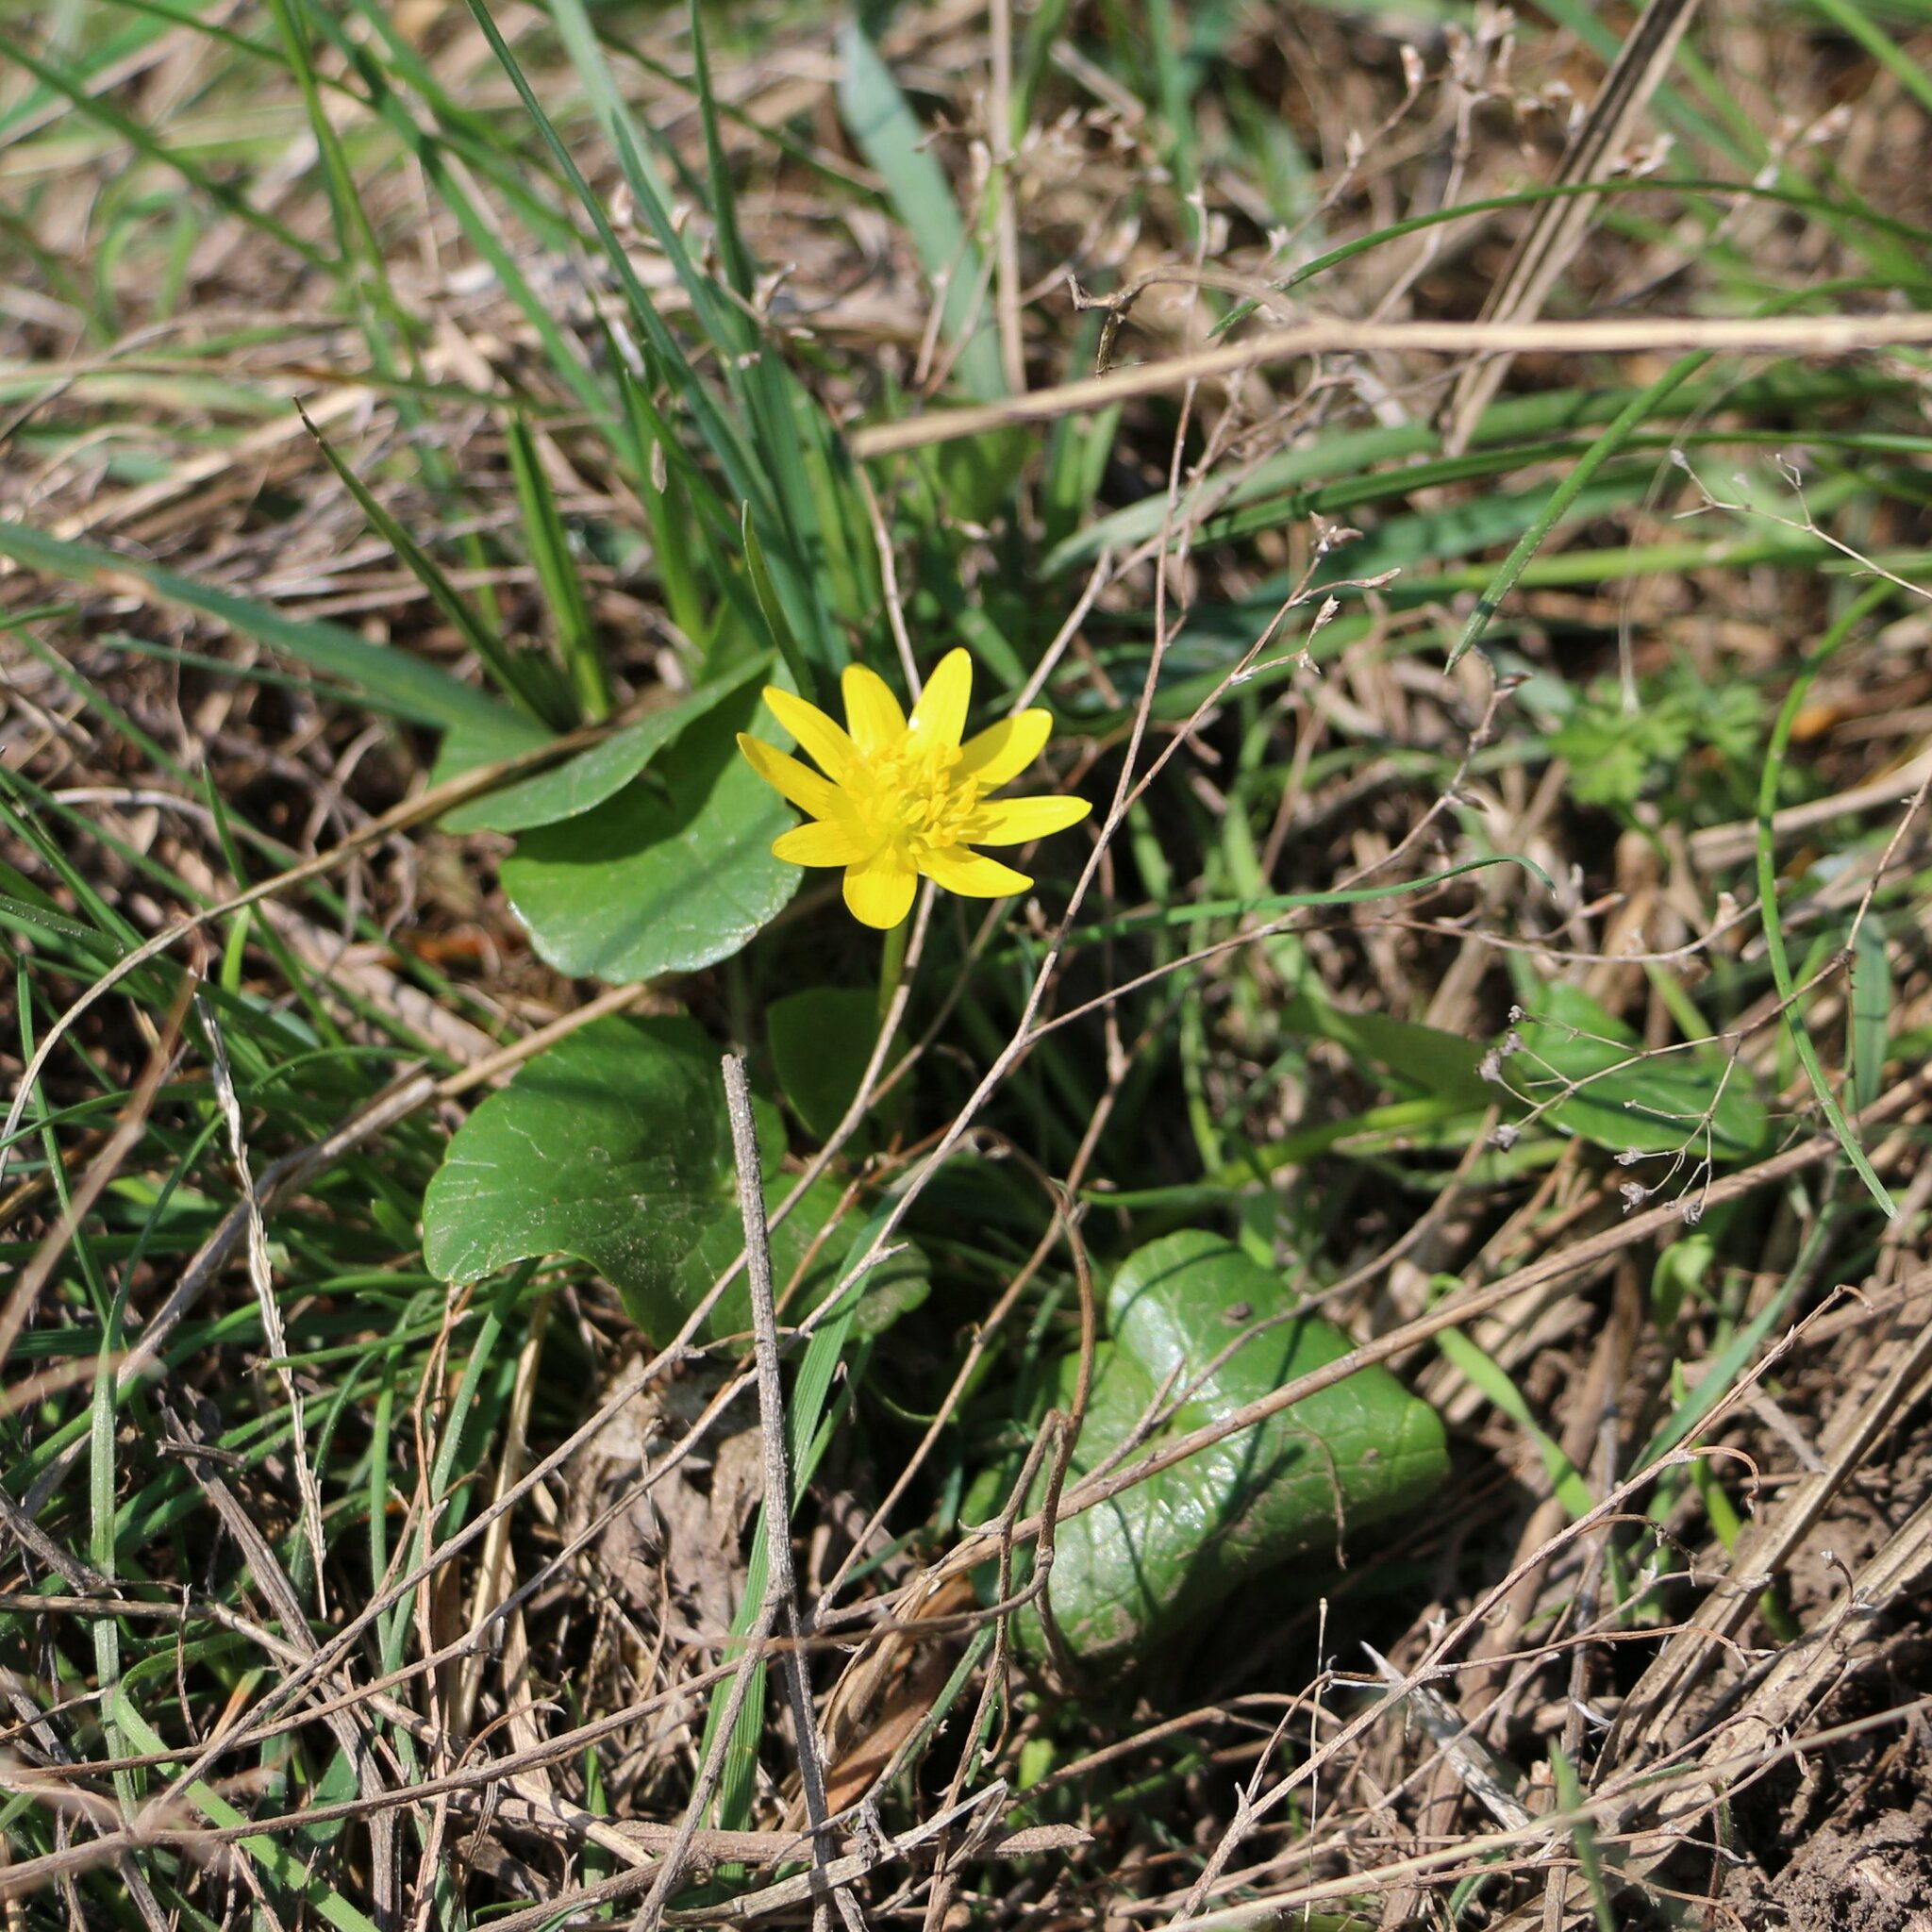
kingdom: Plantae
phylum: Tracheophyta
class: Magnoliopsida
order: Ranunculales
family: Ranunculaceae
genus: Ficaria
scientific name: Ficaria verna
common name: Lesser celandine
